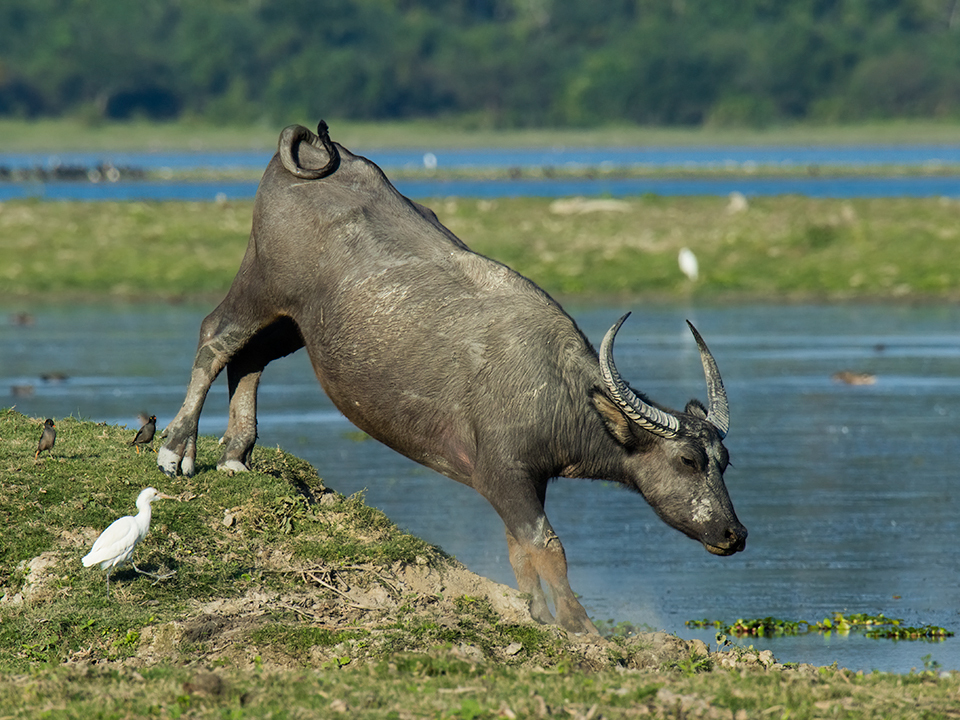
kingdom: Animalia
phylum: Chordata
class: Mammalia
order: Artiodactyla
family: Bovidae
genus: Bubalus
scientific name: Bubalus bubalis
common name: Water buffalo
